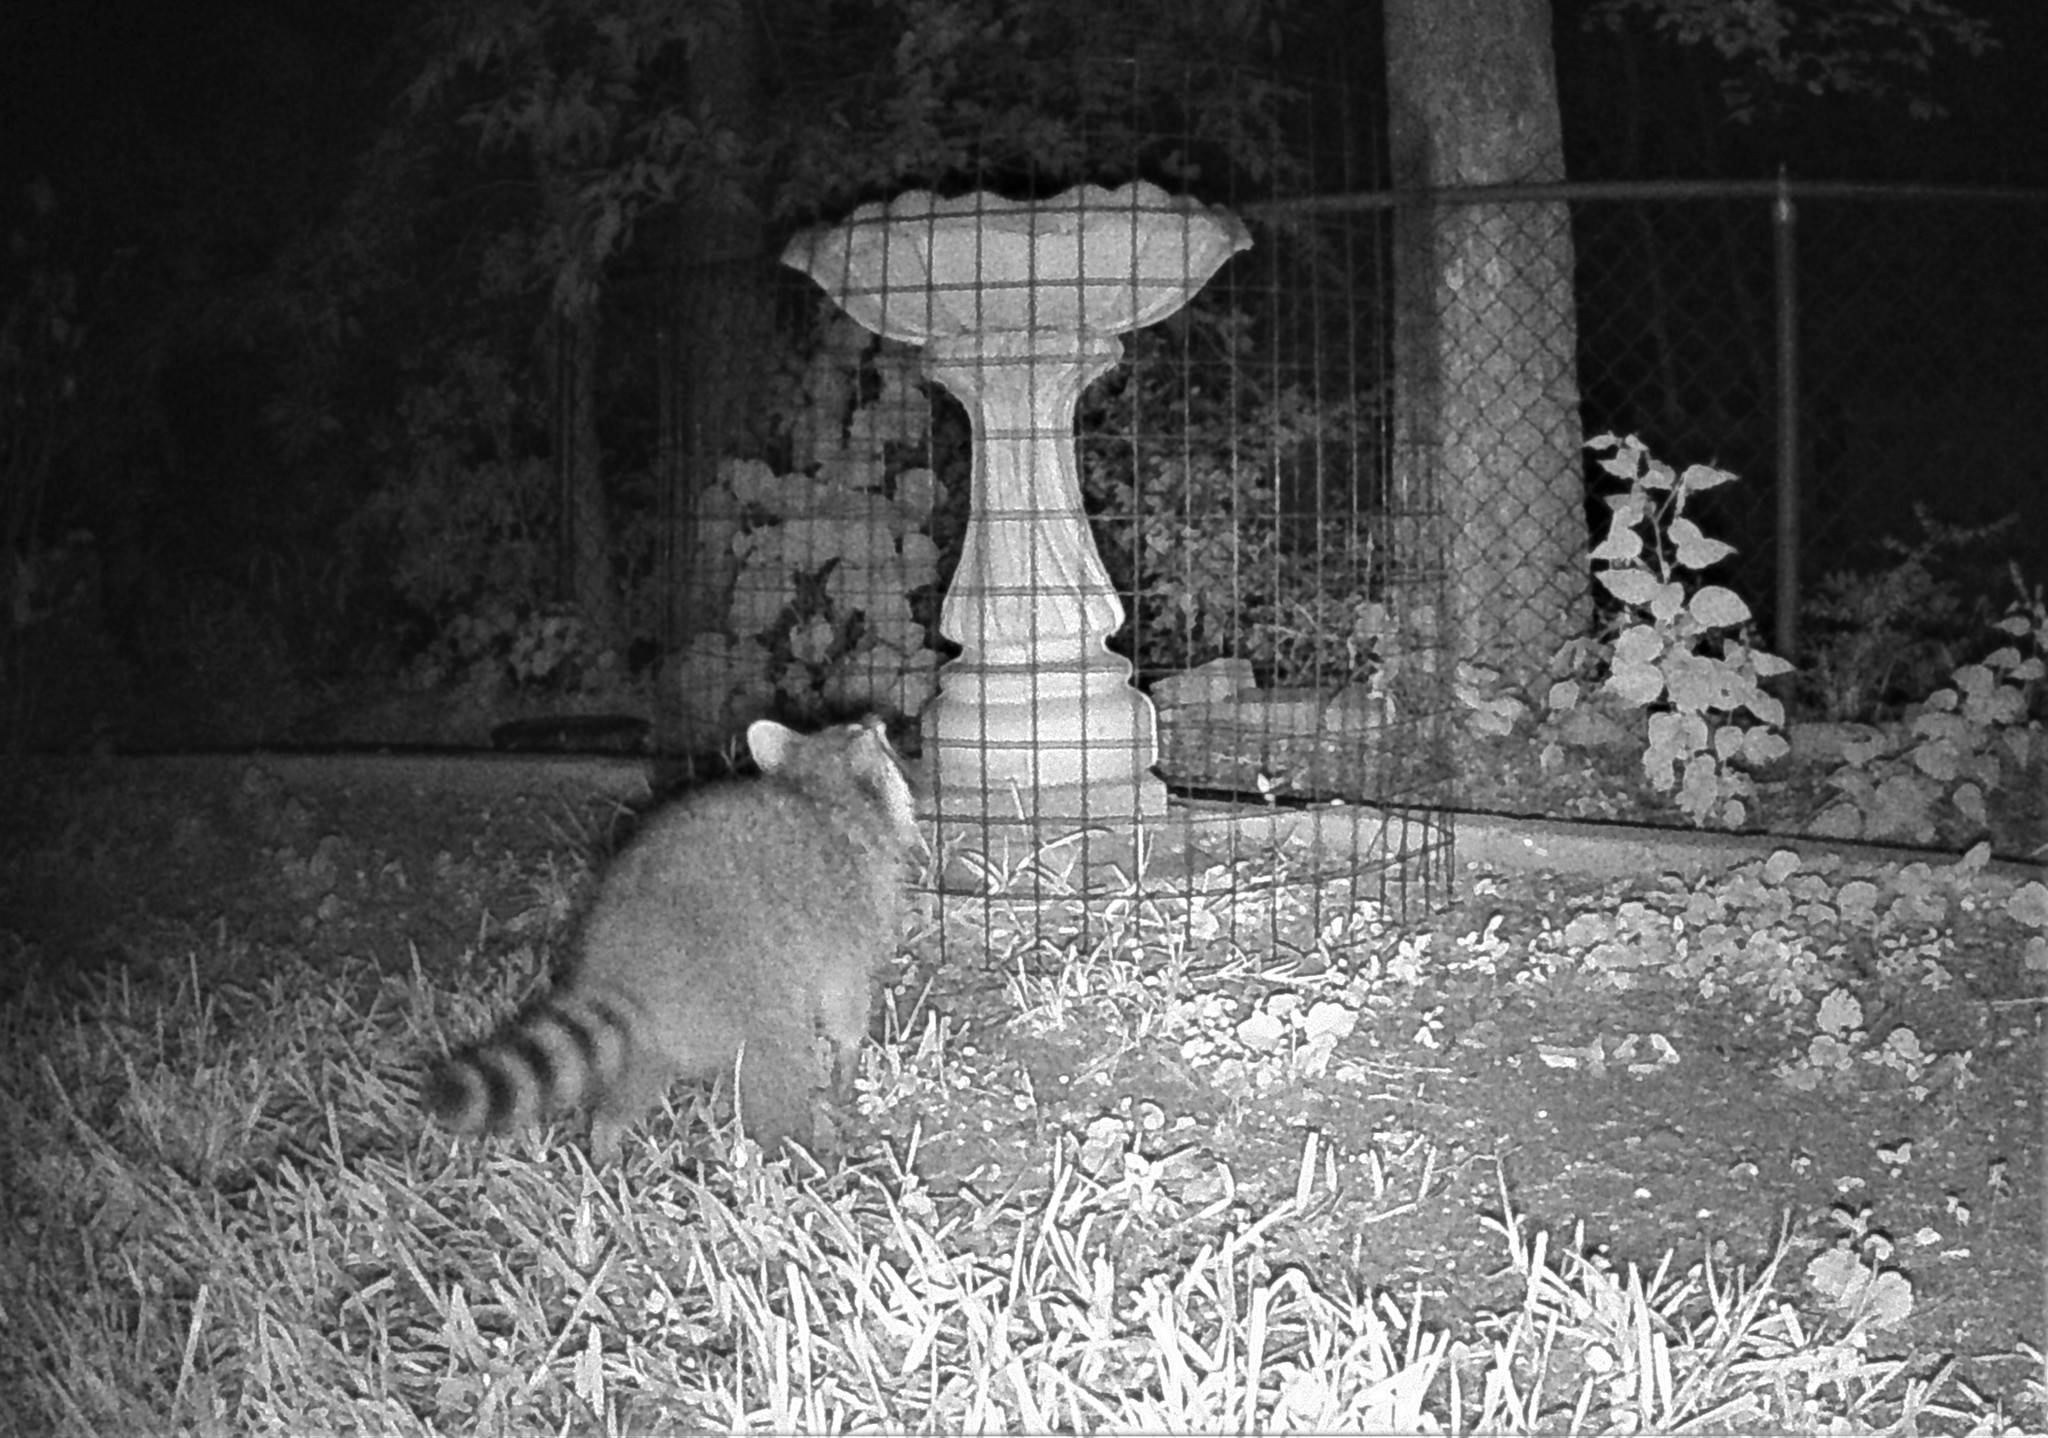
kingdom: Animalia
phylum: Chordata
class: Mammalia
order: Carnivora
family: Procyonidae
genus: Procyon
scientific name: Procyon lotor
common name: Raccoon
